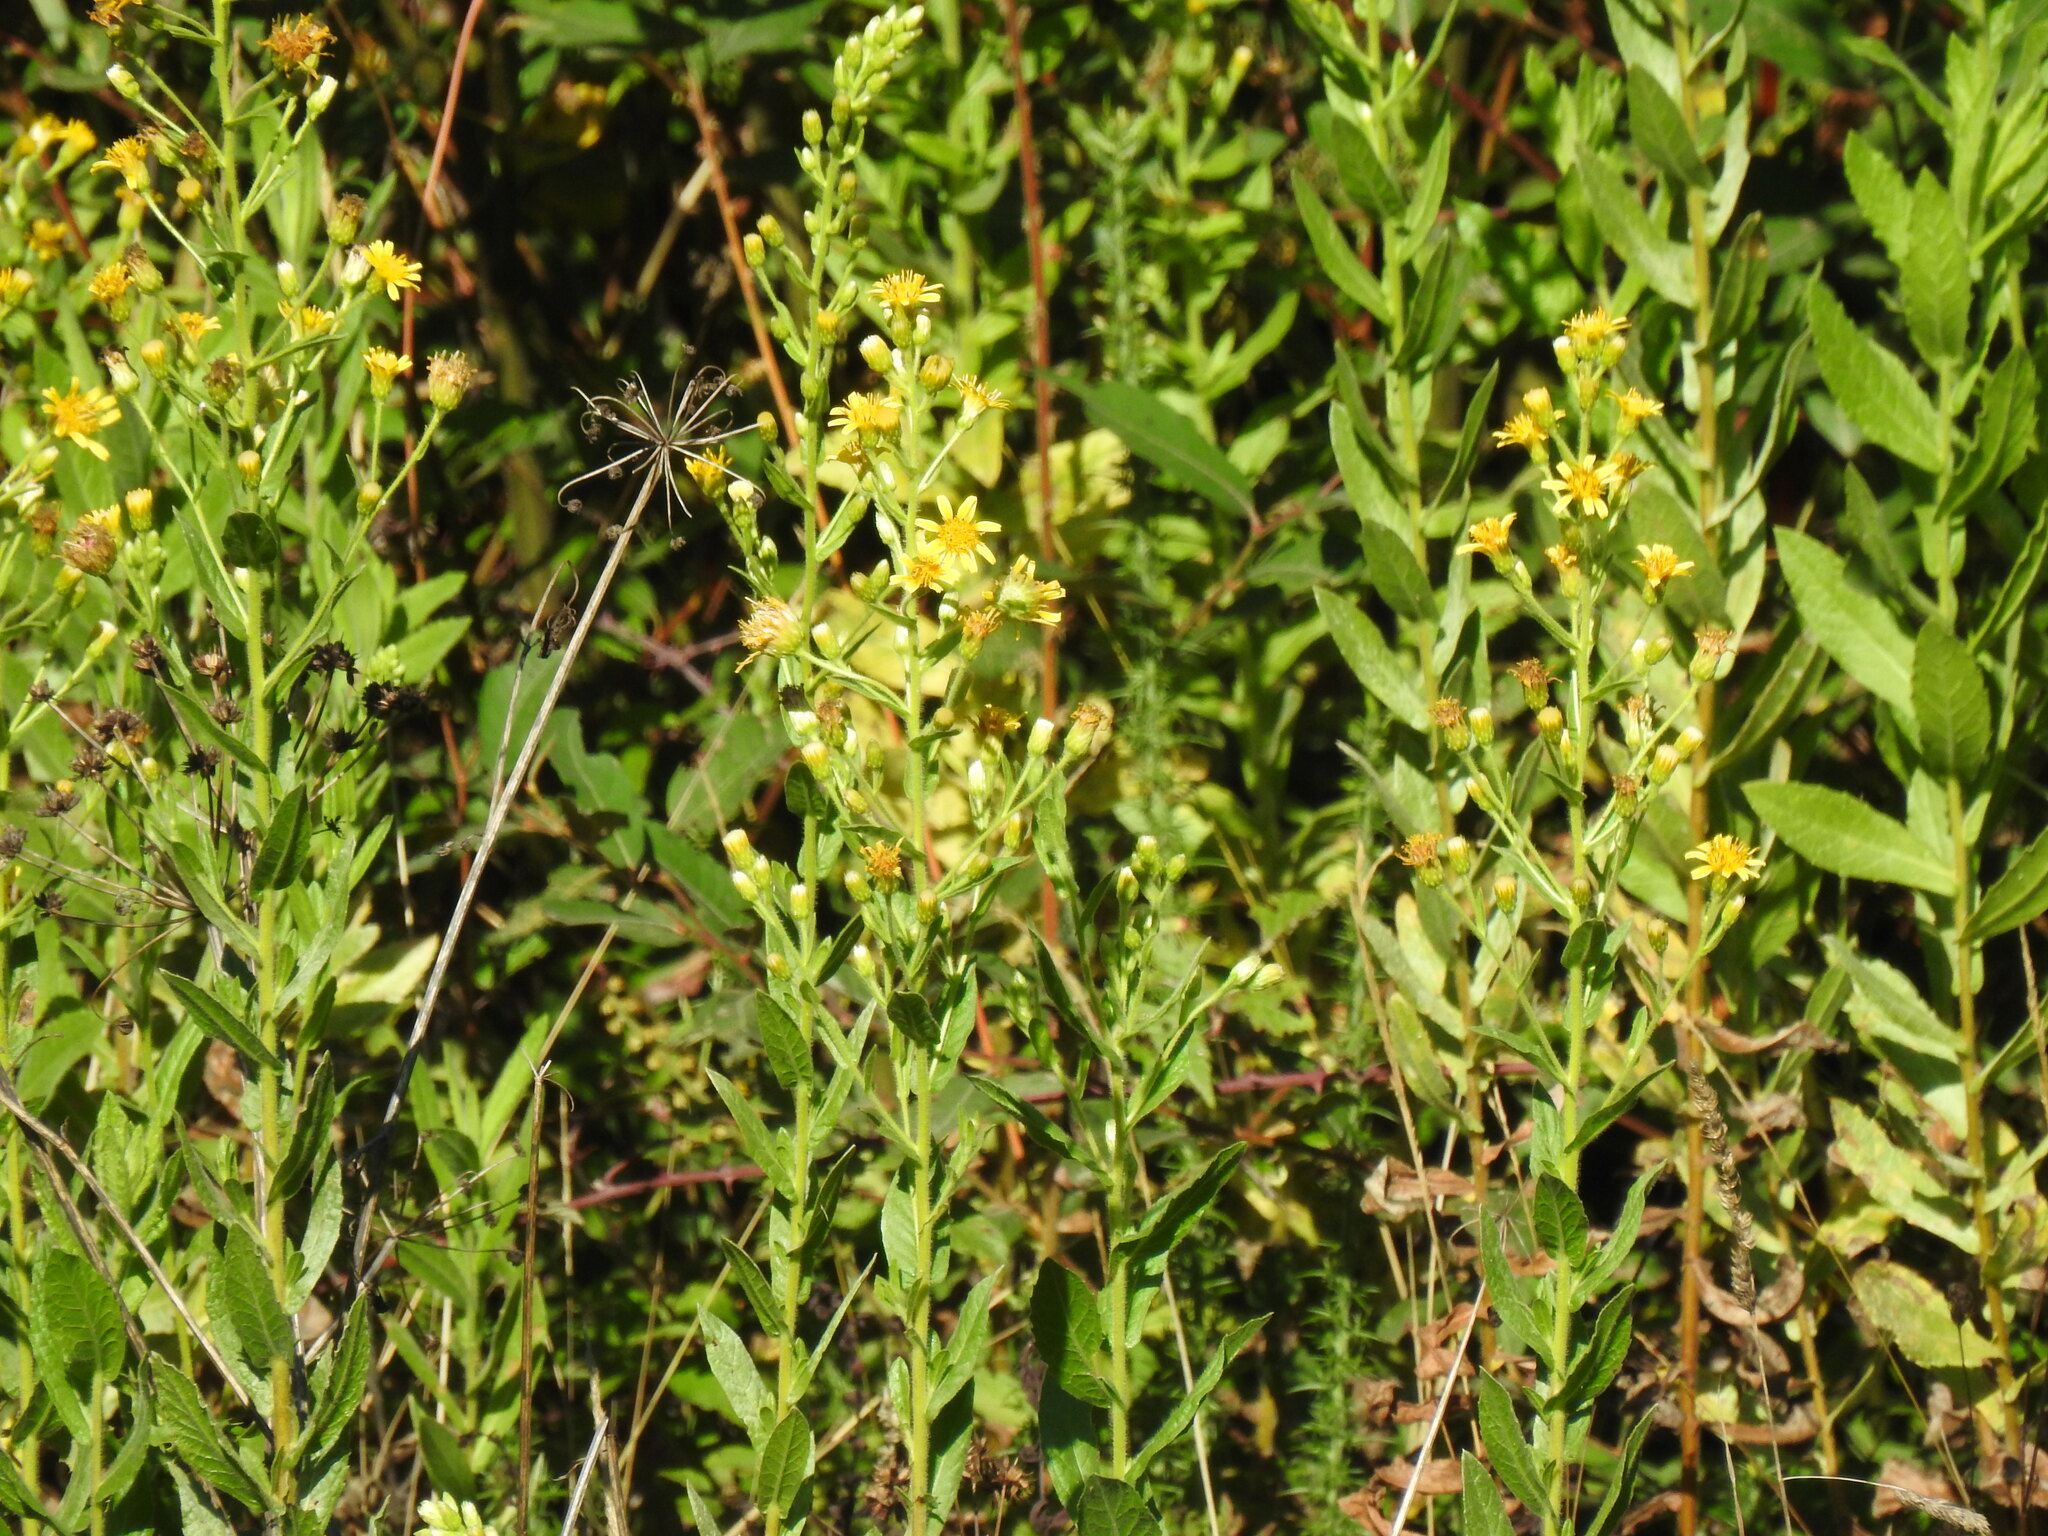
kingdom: Plantae
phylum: Tracheophyta
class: Magnoliopsida
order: Asterales
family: Asteraceae
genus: Dittrichia
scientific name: Dittrichia viscosa
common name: Woody fleabane
